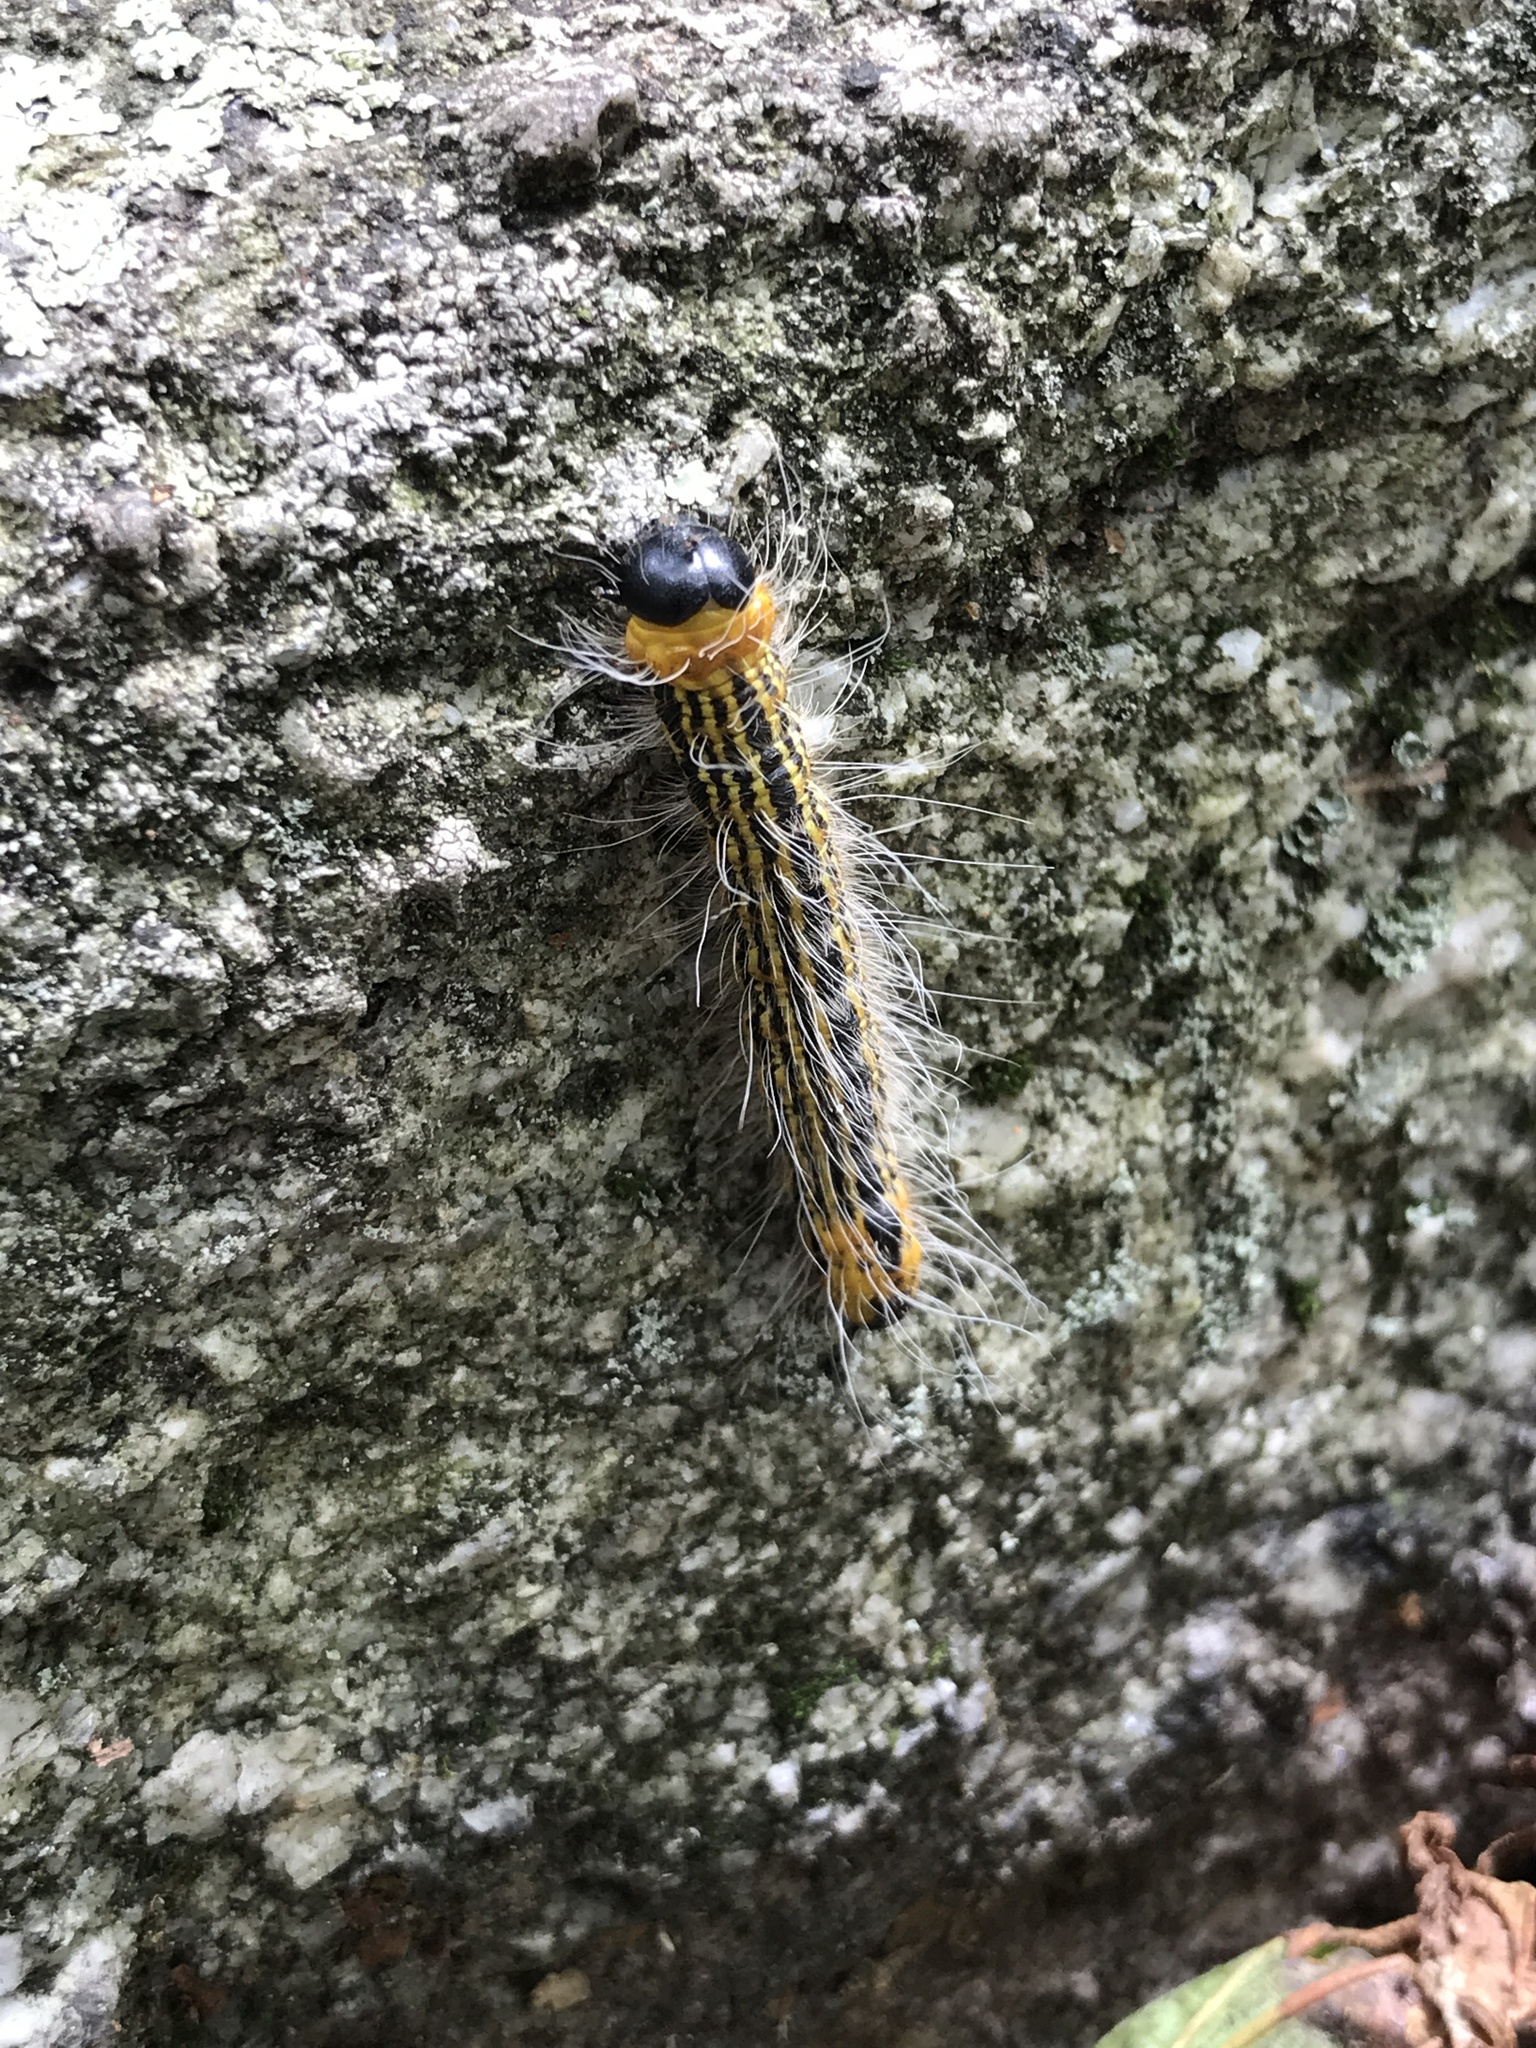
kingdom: Animalia
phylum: Arthropoda
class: Insecta
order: Lepidoptera
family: Notodontidae
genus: Datana
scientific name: Datana drexelii
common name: Drexel's datana
